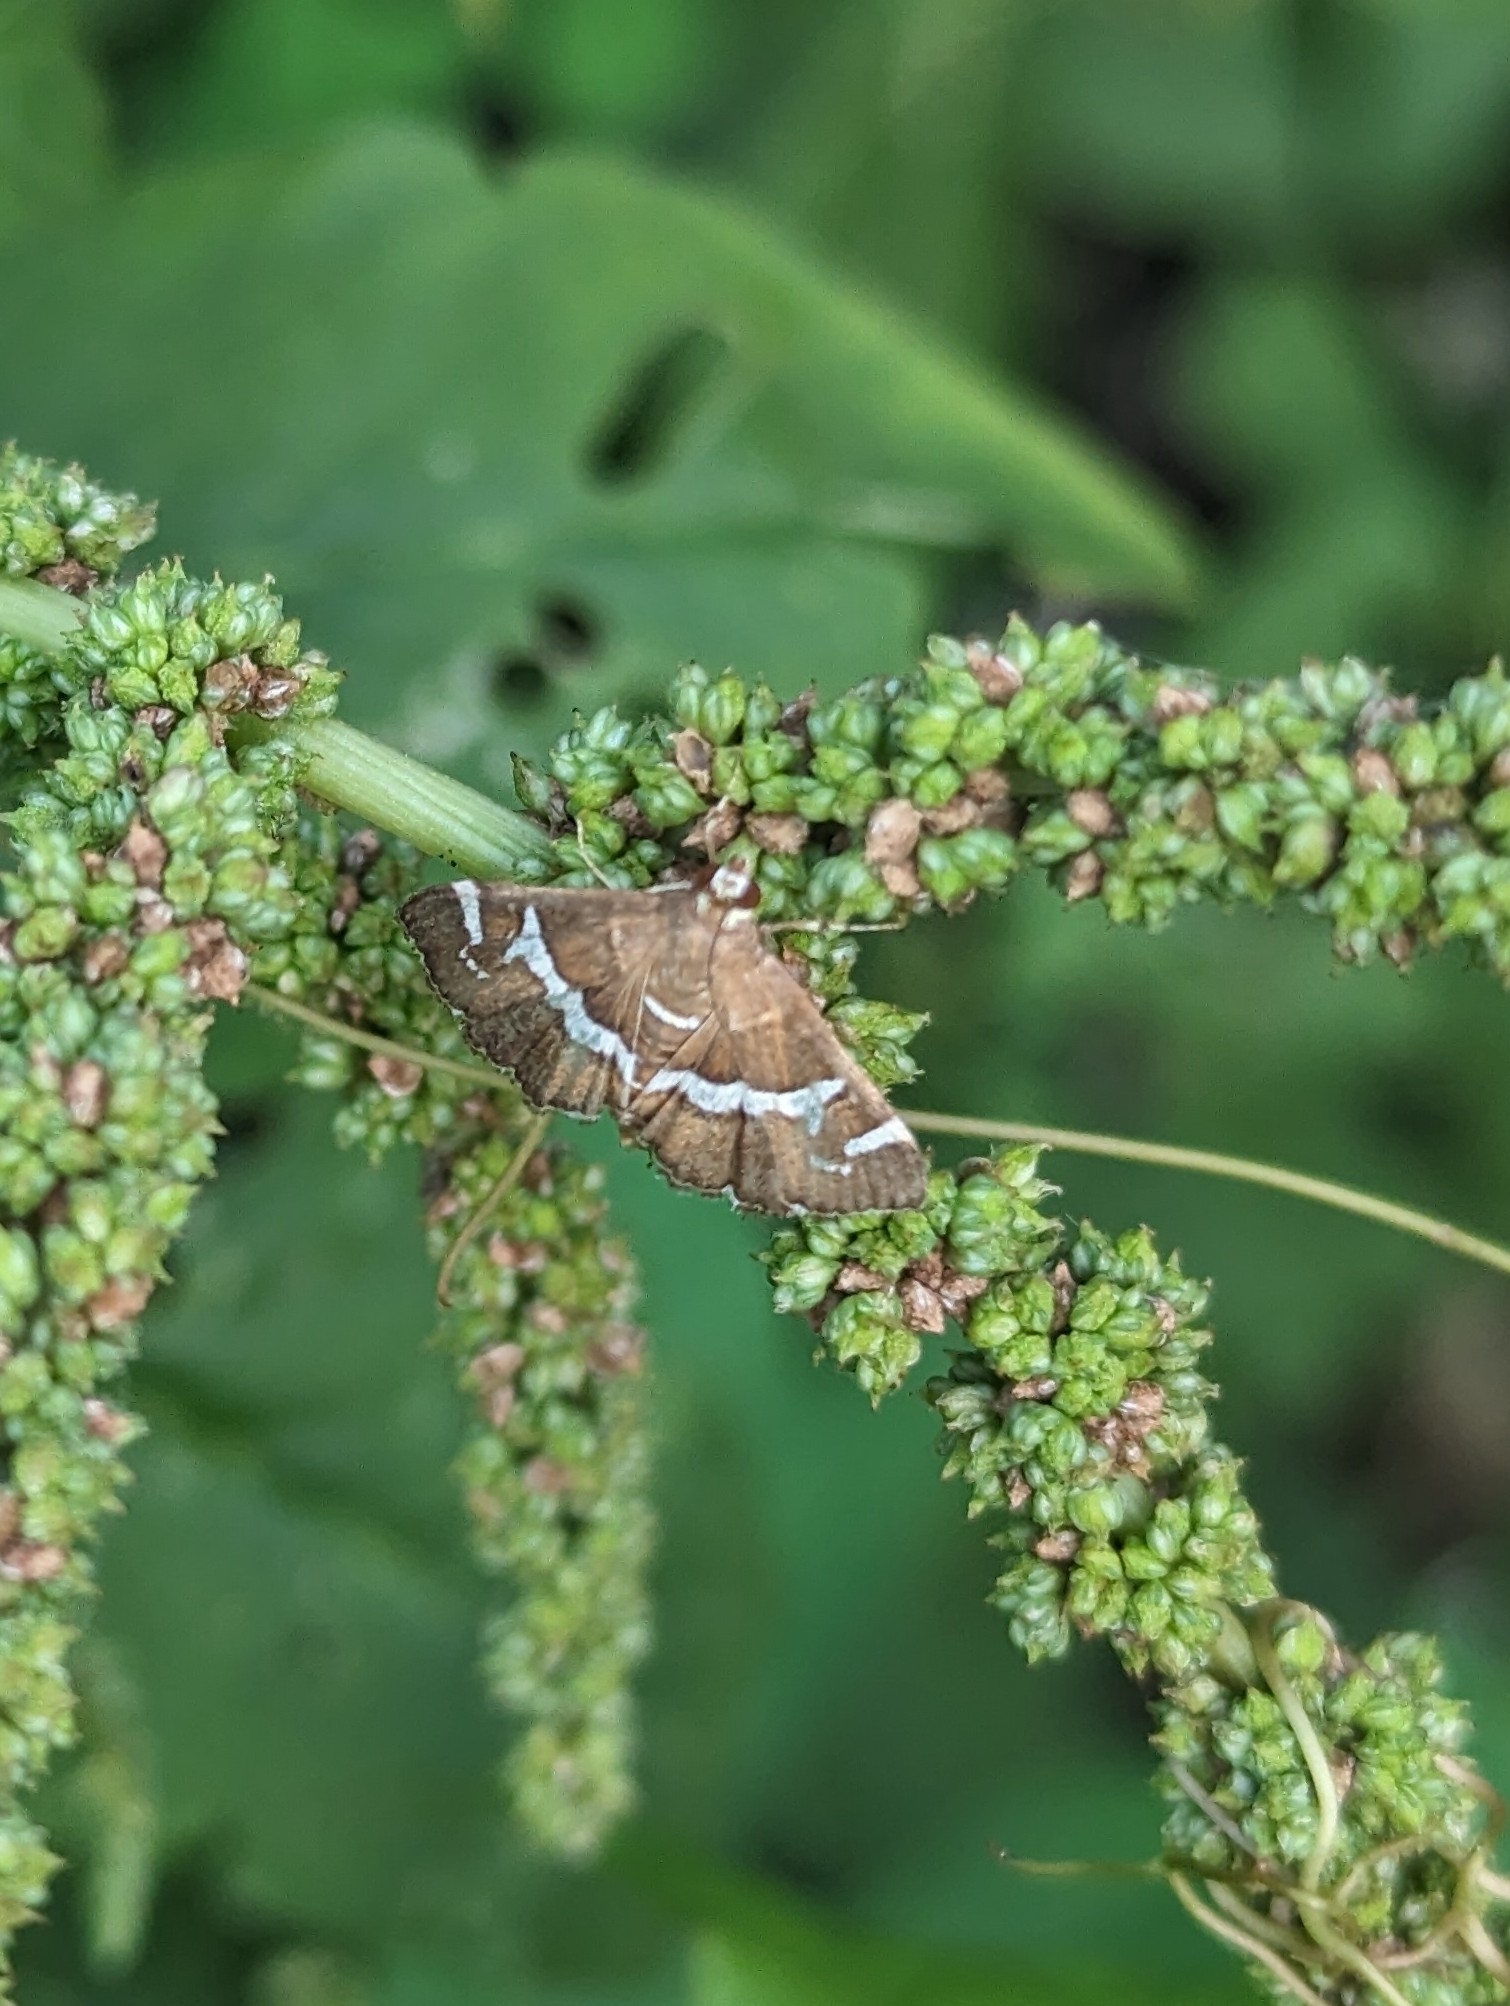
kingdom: Animalia
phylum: Arthropoda
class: Insecta
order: Lepidoptera
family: Crambidae
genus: Spoladea
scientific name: Spoladea recurvalis
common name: Beet webworm moth
